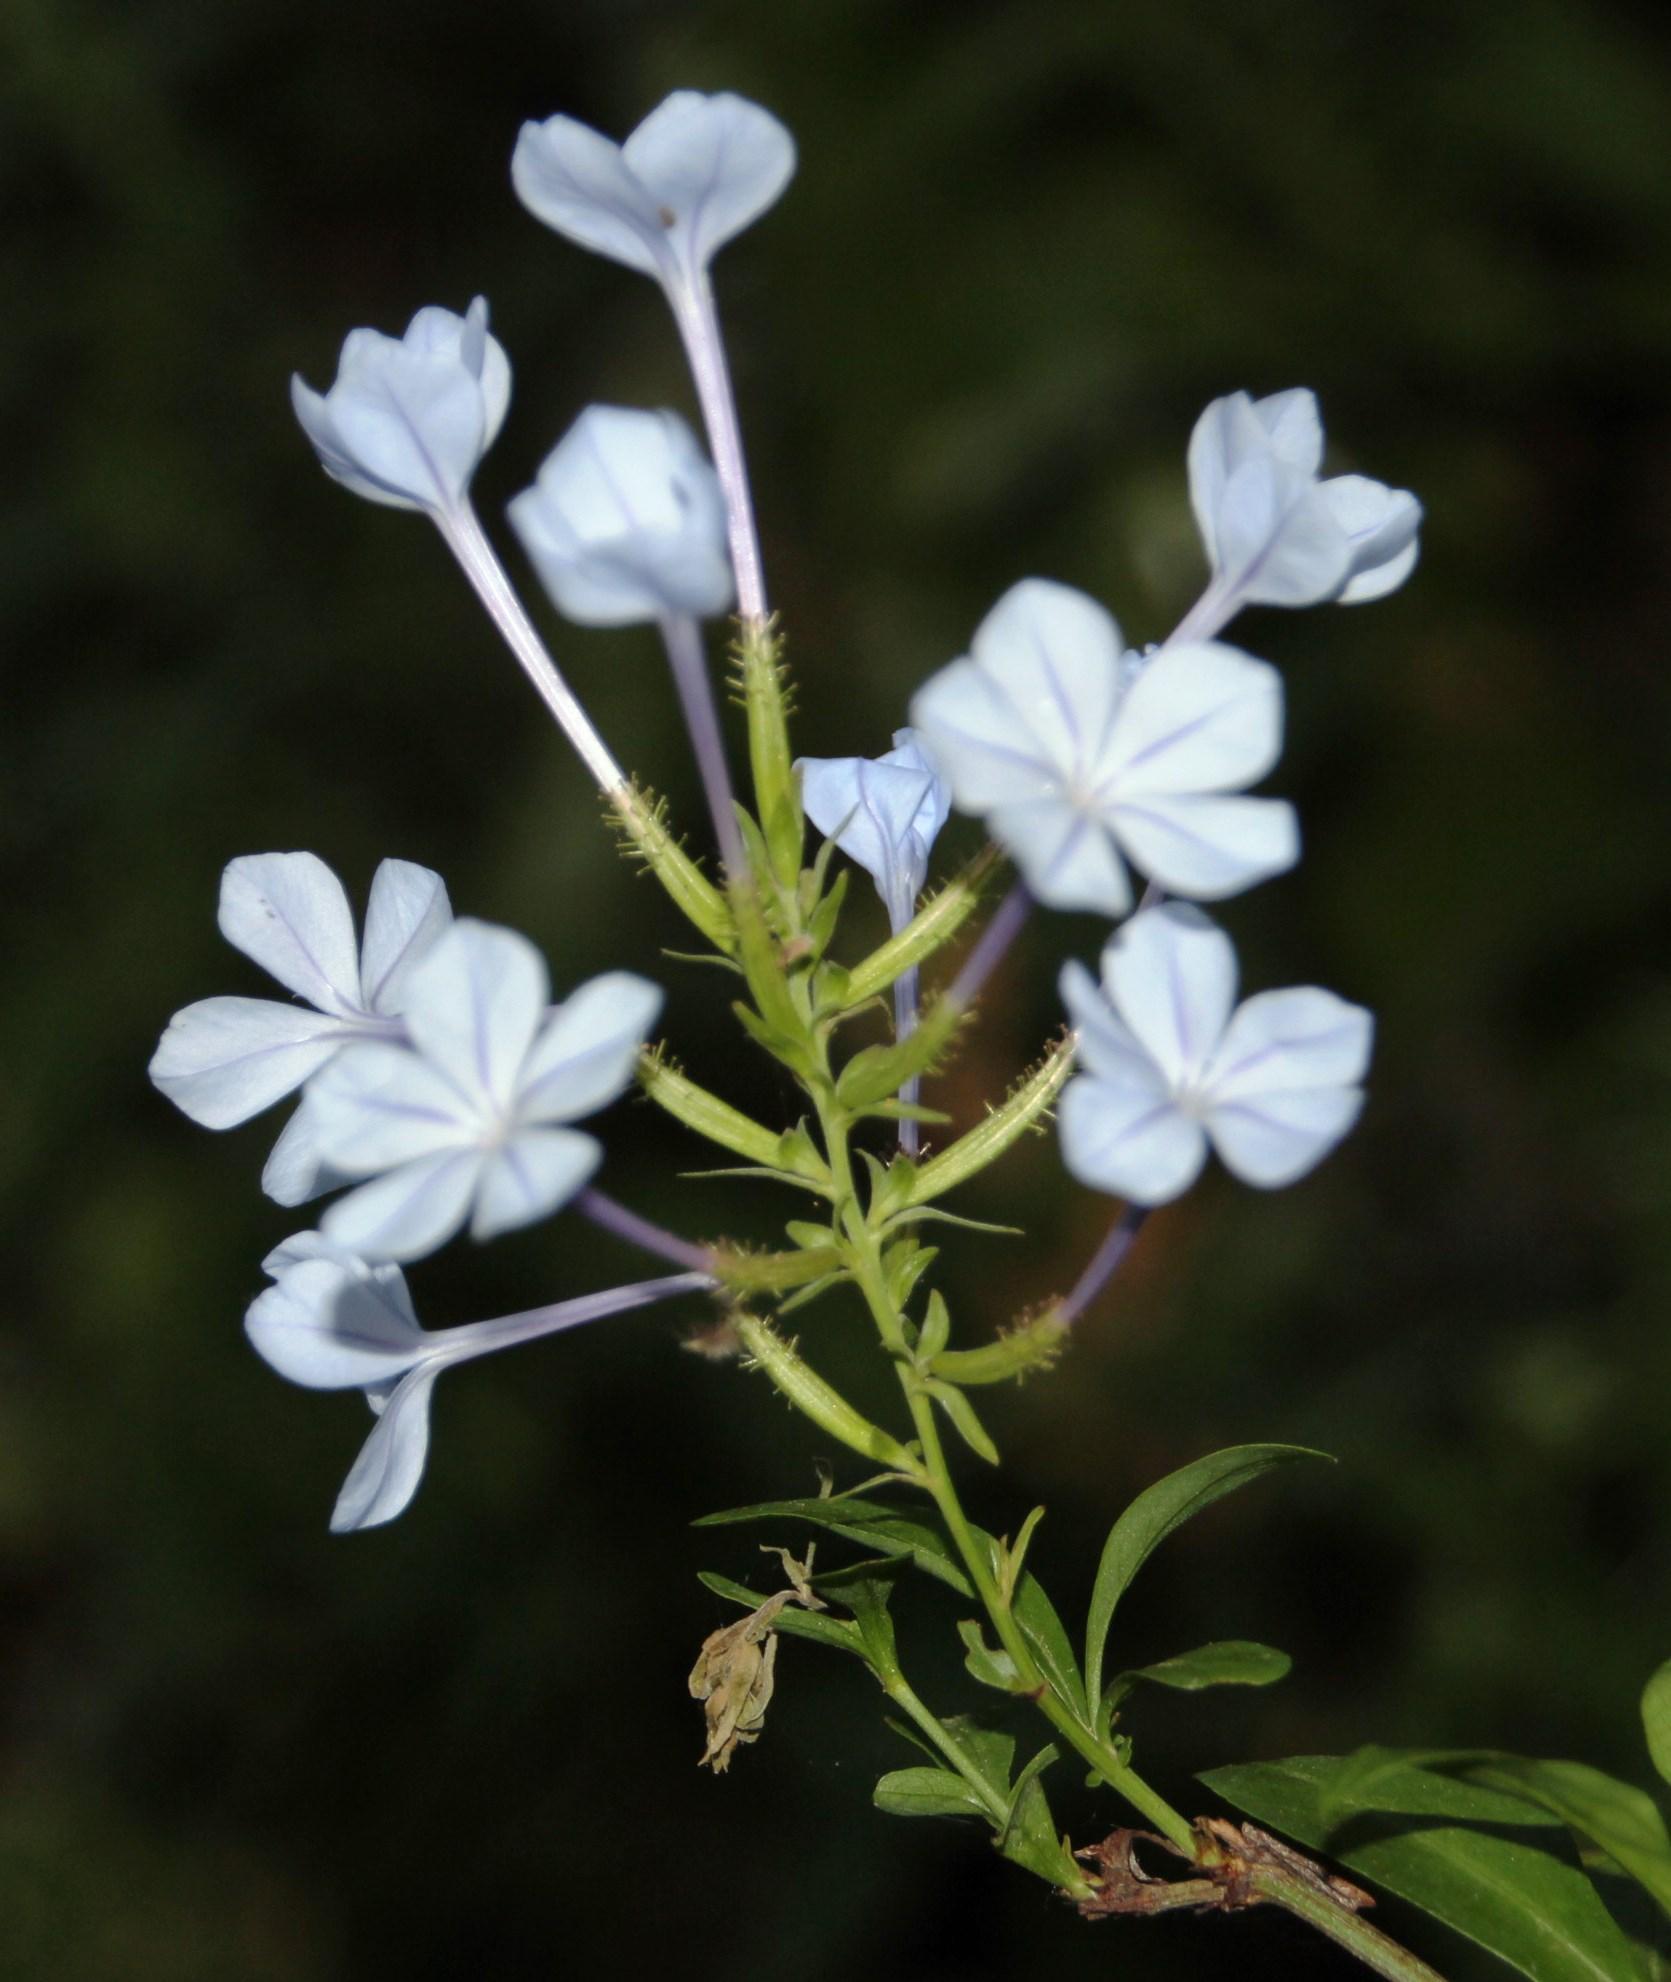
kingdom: Plantae
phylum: Tracheophyta
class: Magnoliopsida
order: Caryophyllales
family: Plumbaginaceae
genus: Plumbago
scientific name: Plumbago auriculata
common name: Cape leadwort
